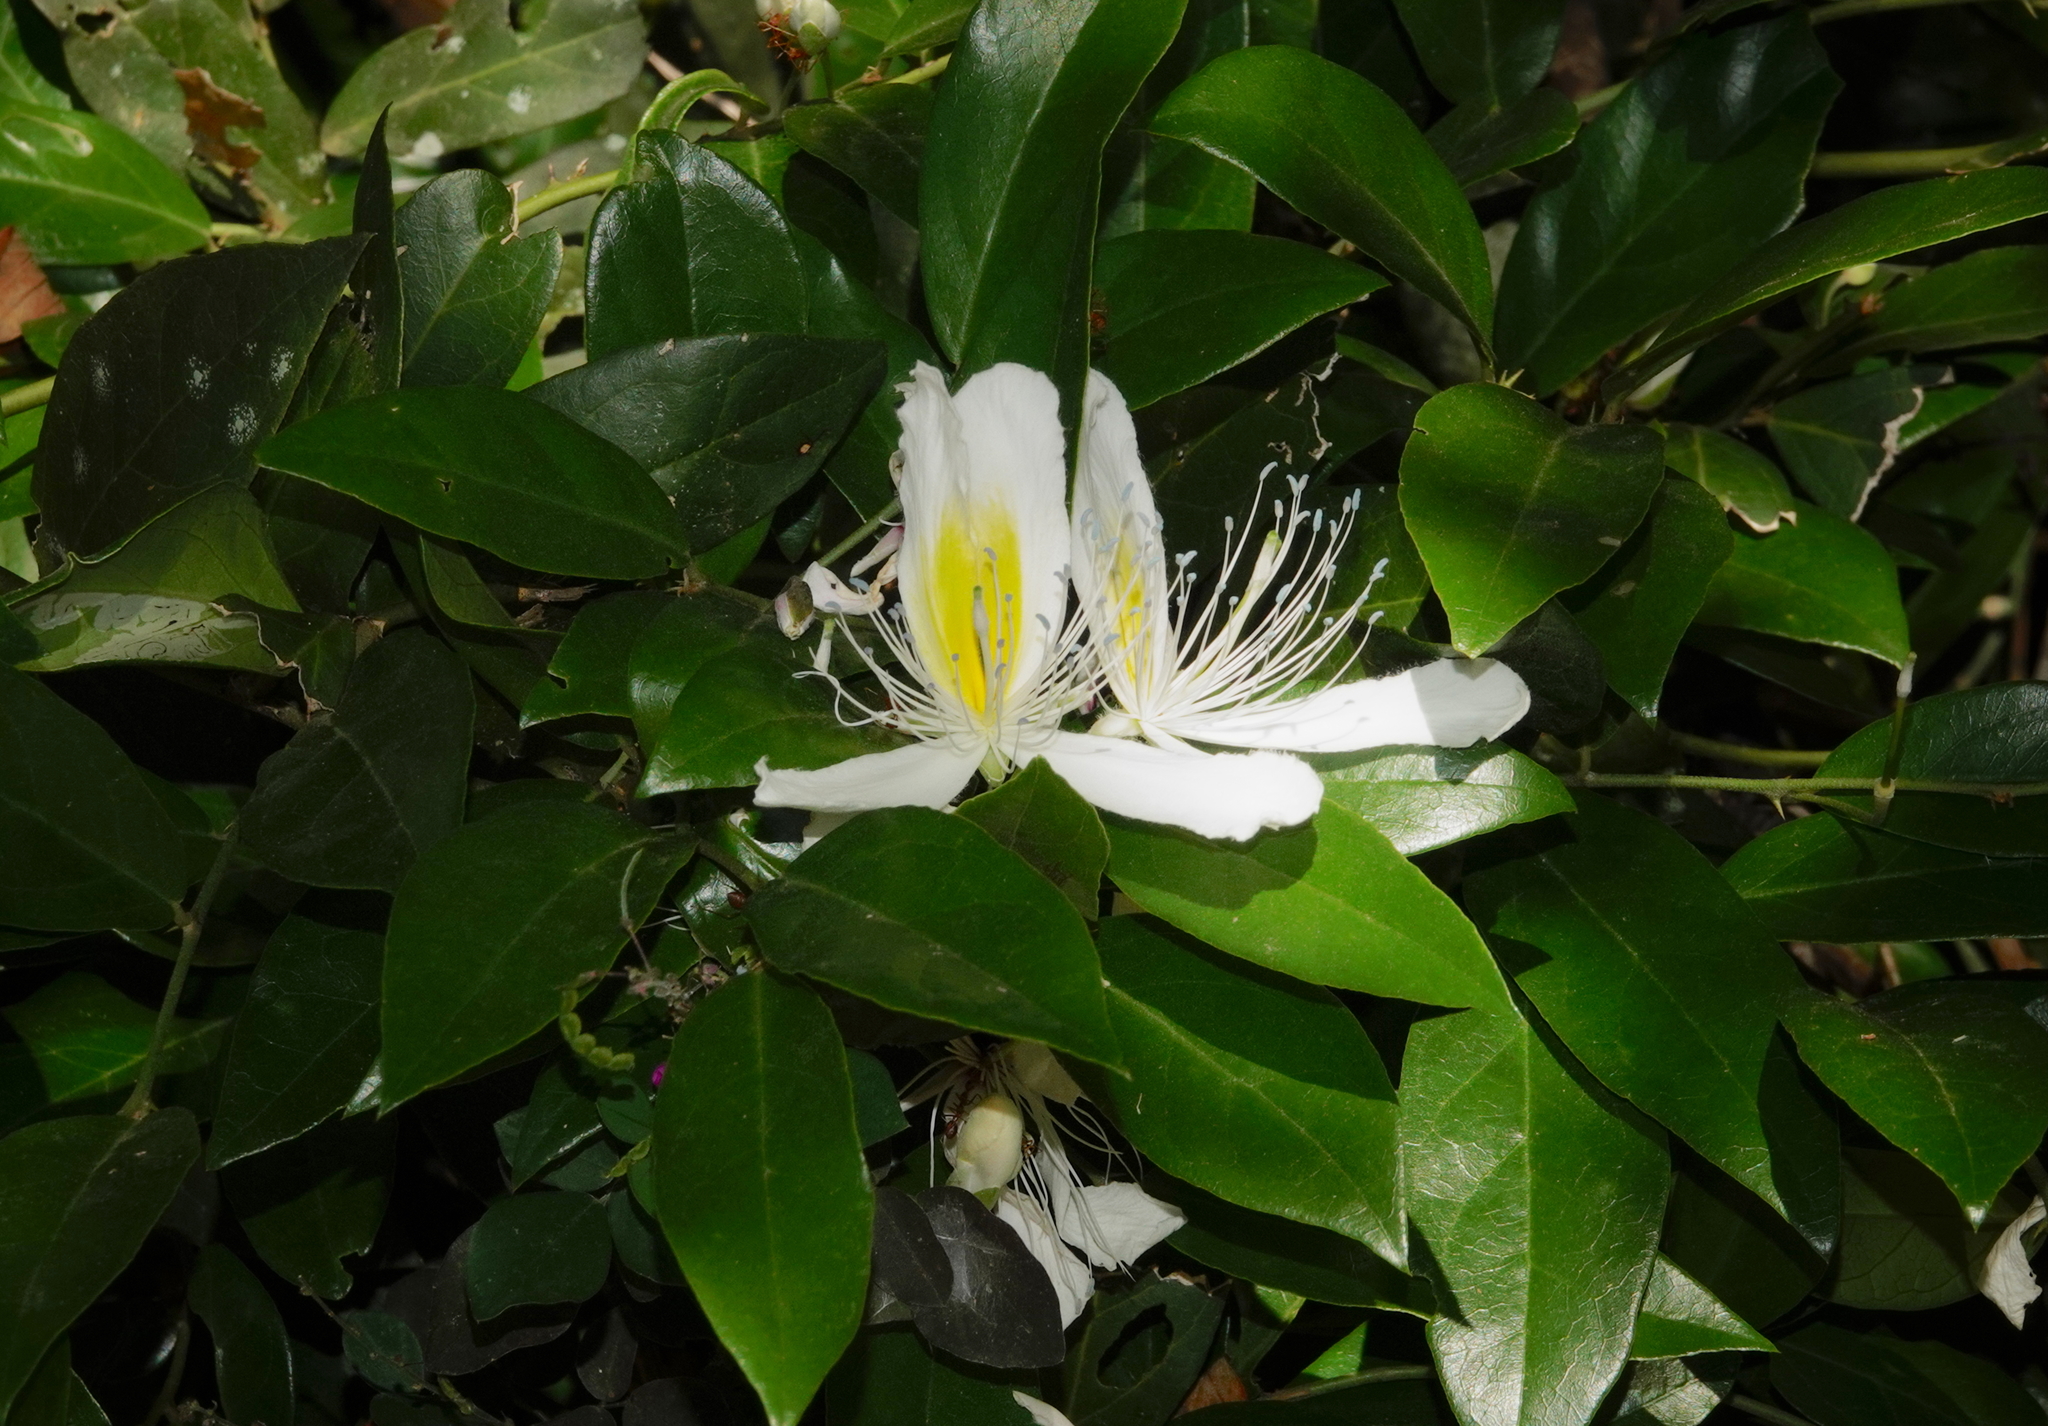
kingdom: Plantae
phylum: Tracheophyta
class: Magnoliopsida
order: Brassicales
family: Capparaceae
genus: Capparis
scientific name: Capparis brevispina
